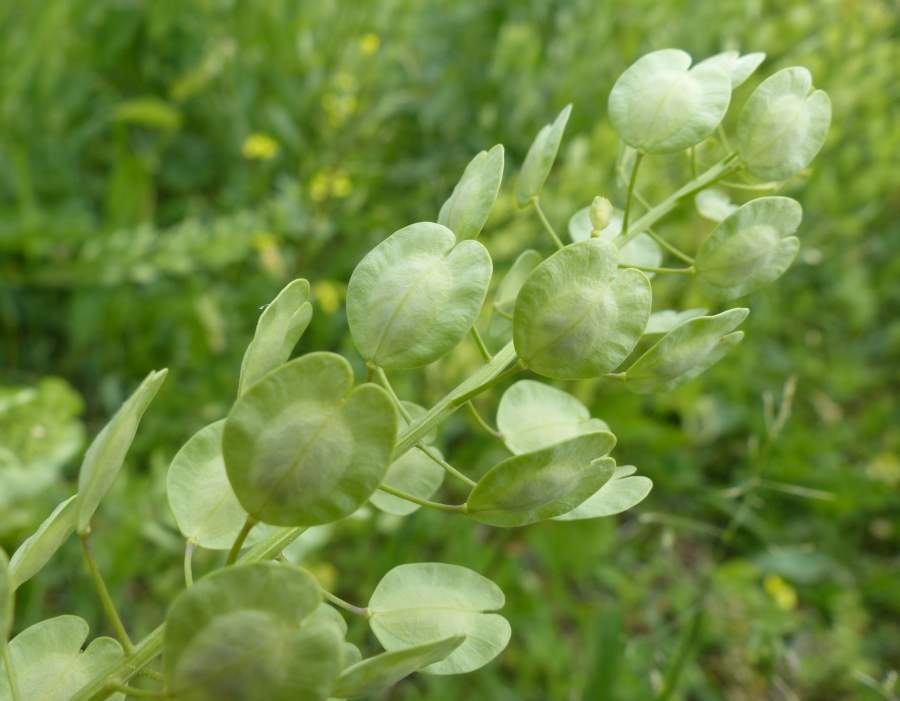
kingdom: Plantae
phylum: Tracheophyta
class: Magnoliopsida
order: Brassicales
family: Brassicaceae
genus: Thlaspi
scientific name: Thlaspi arvense
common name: Field pennycress
